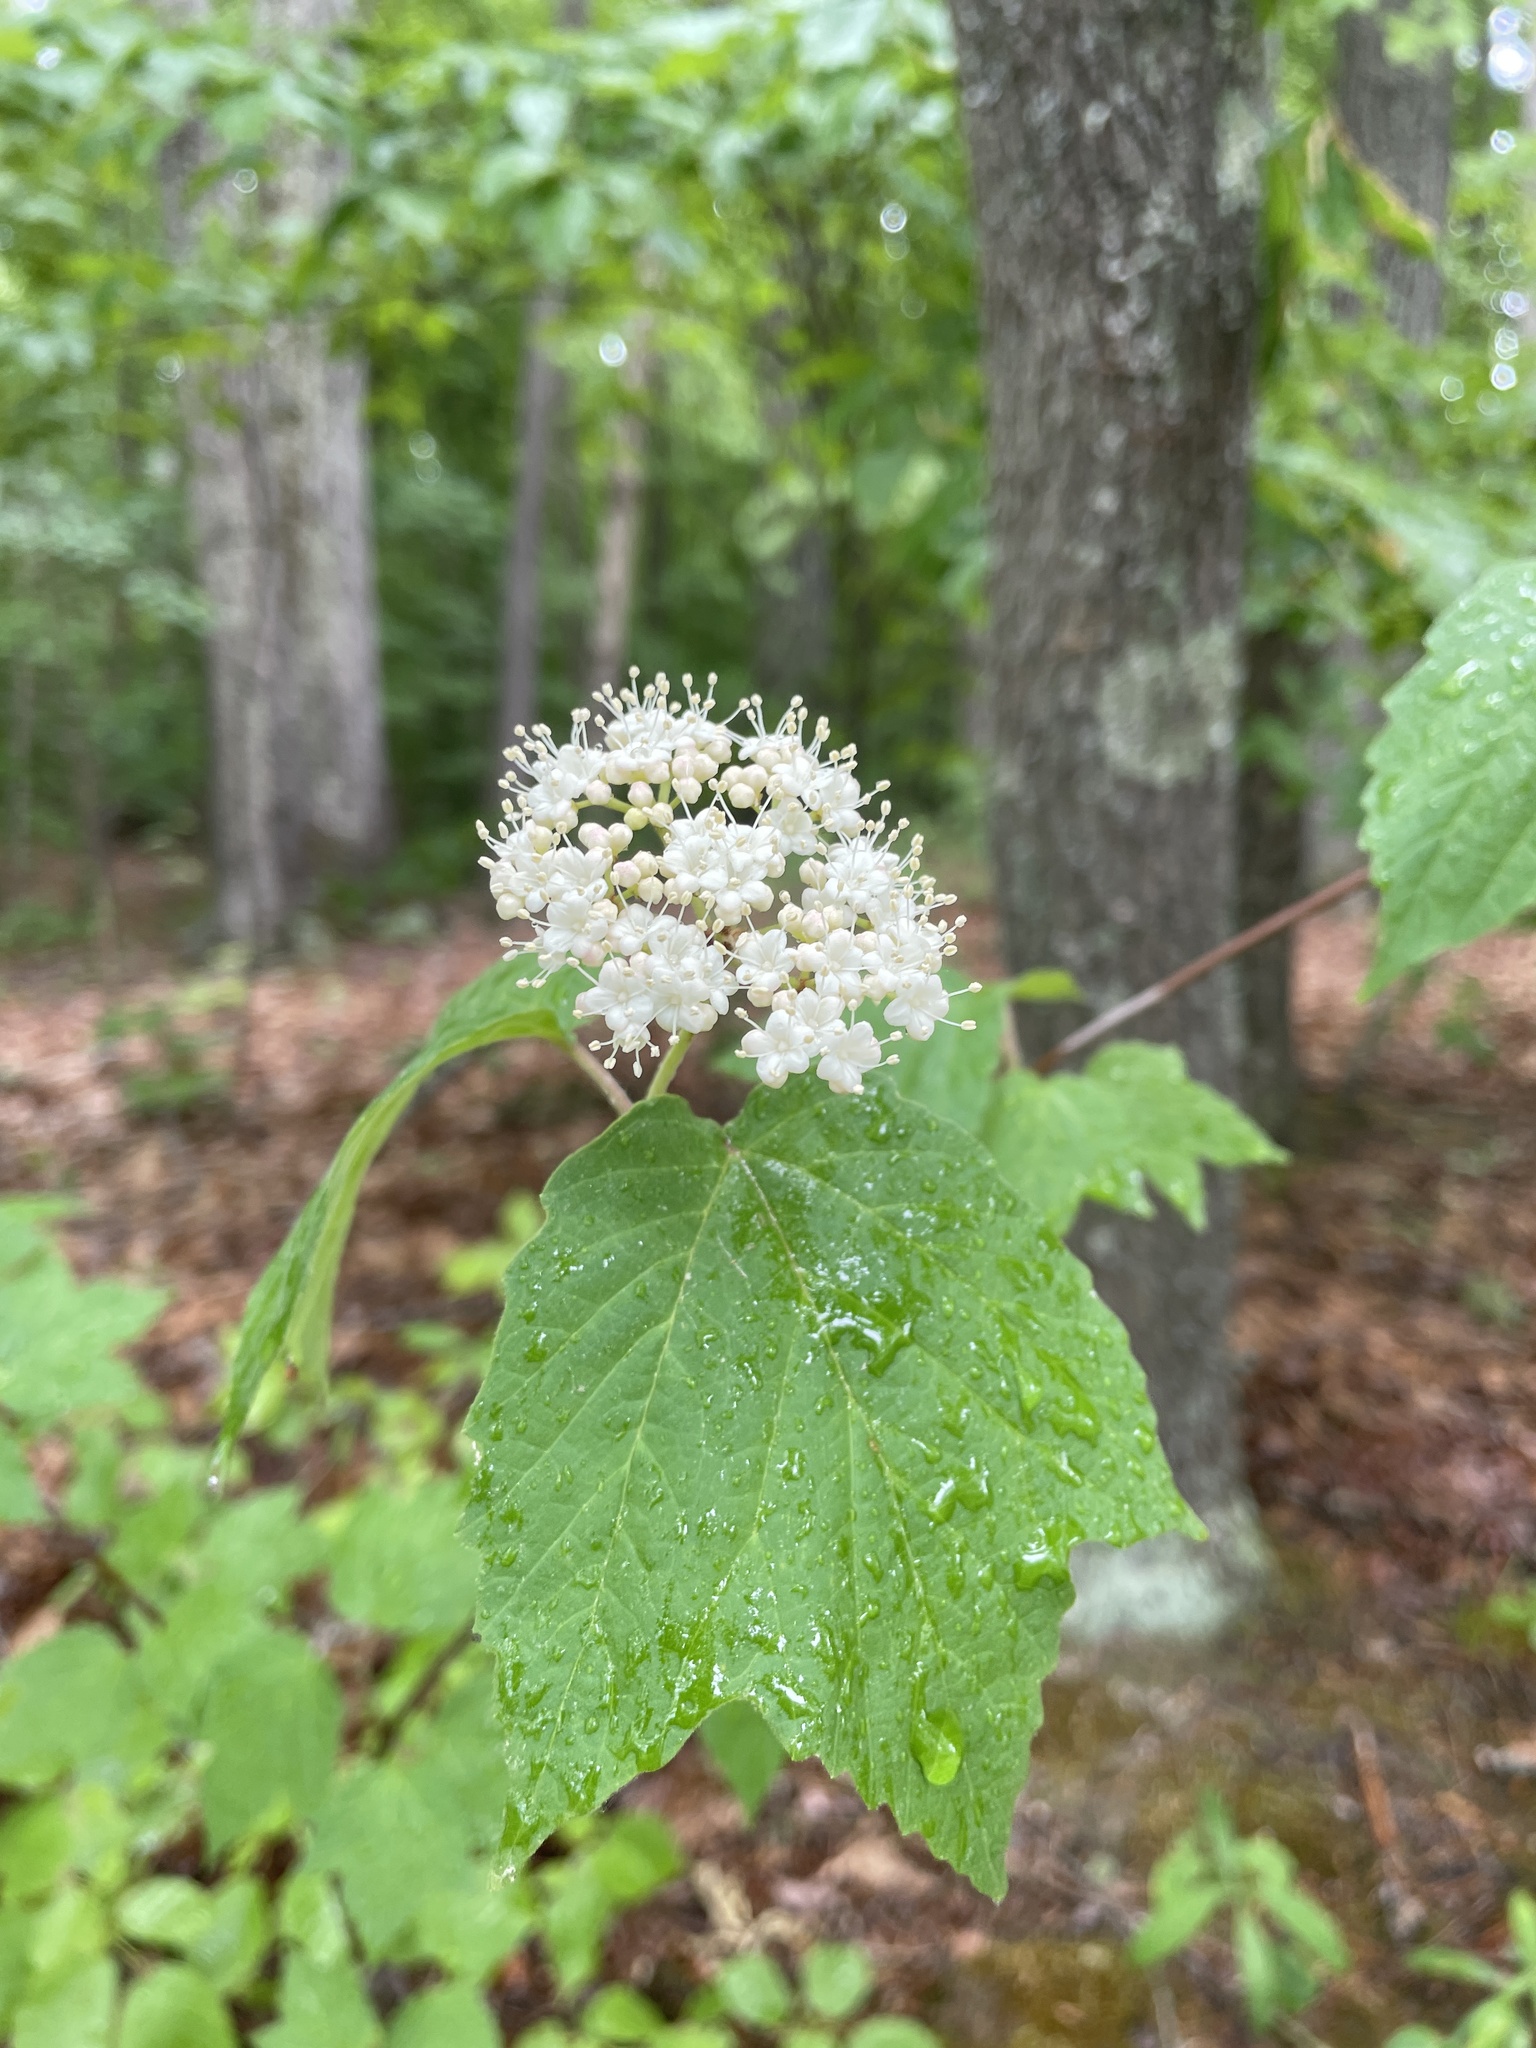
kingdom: Plantae
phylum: Tracheophyta
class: Magnoliopsida
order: Dipsacales
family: Viburnaceae
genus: Viburnum
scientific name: Viburnum acerifolium
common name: Dockmackie
